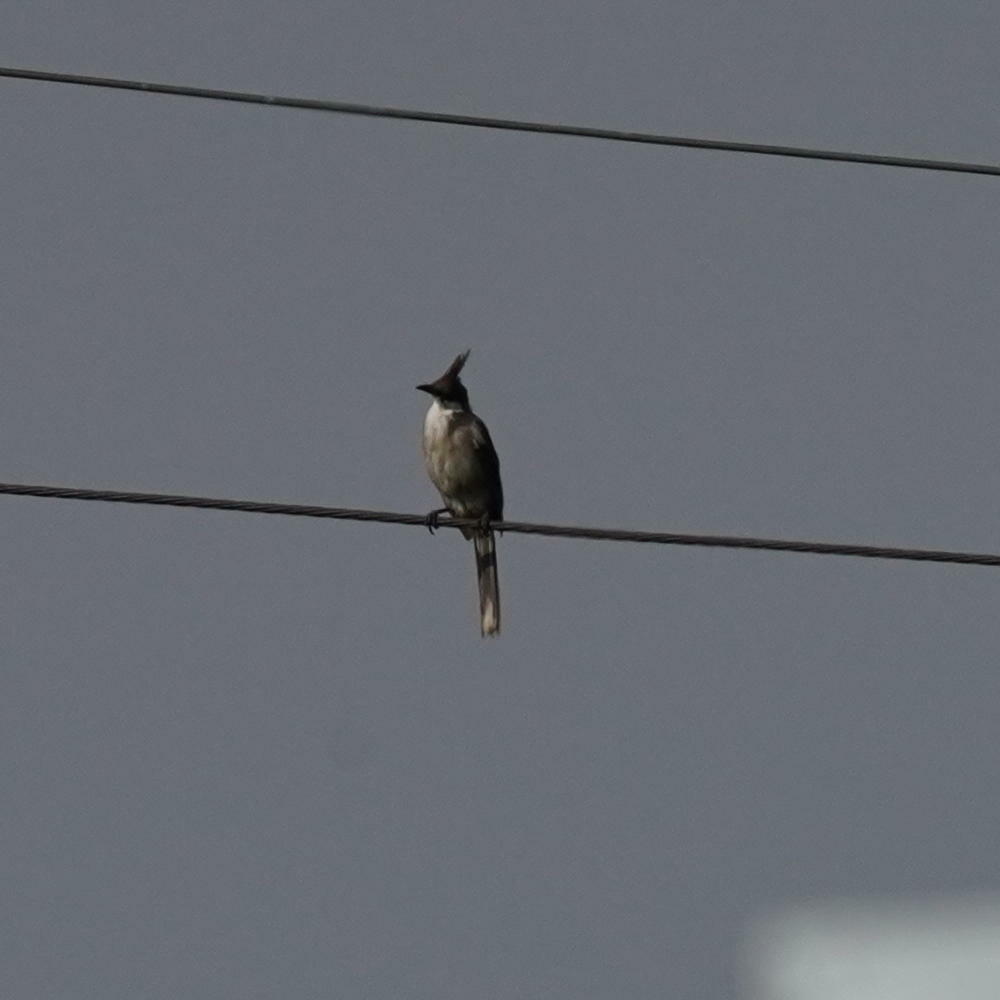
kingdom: Animalia
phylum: Chordata
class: Aves
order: Passeriformes
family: Pycnonotidae
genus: Pycnonotus
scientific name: Pycnonotus jocosus
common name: Red-whiskered bulbul
